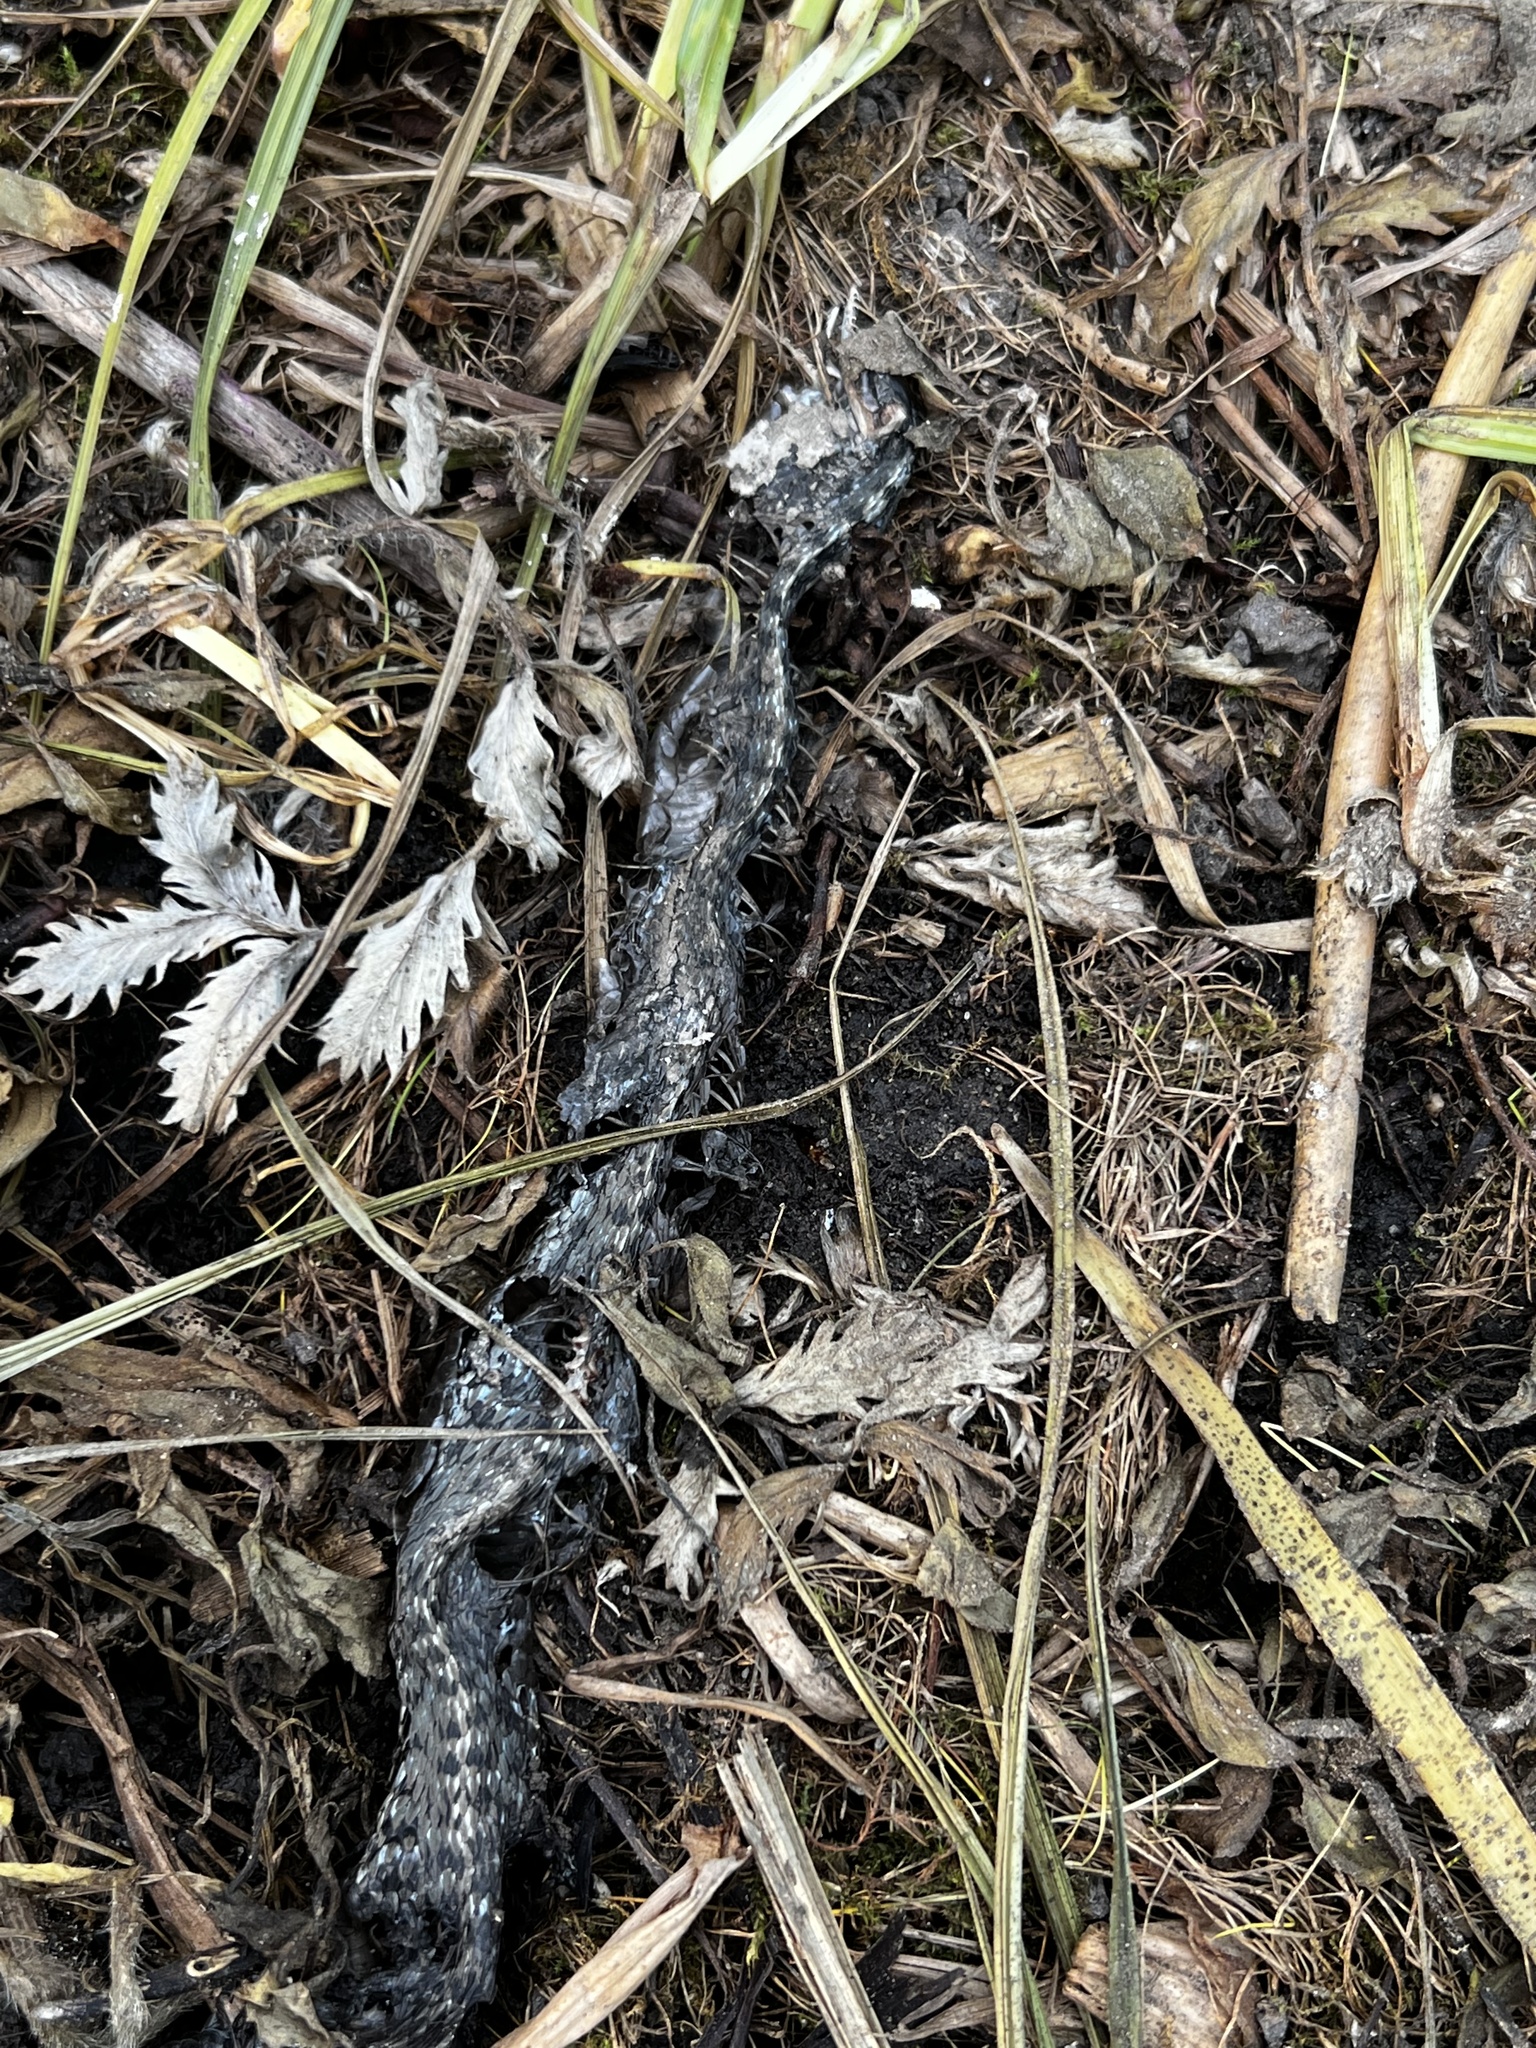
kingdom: Animalia
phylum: Chordata
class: Squamata
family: Colubridae
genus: Thamnophis
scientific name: Thamnophis elegans
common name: Western terrestrial garter snake
